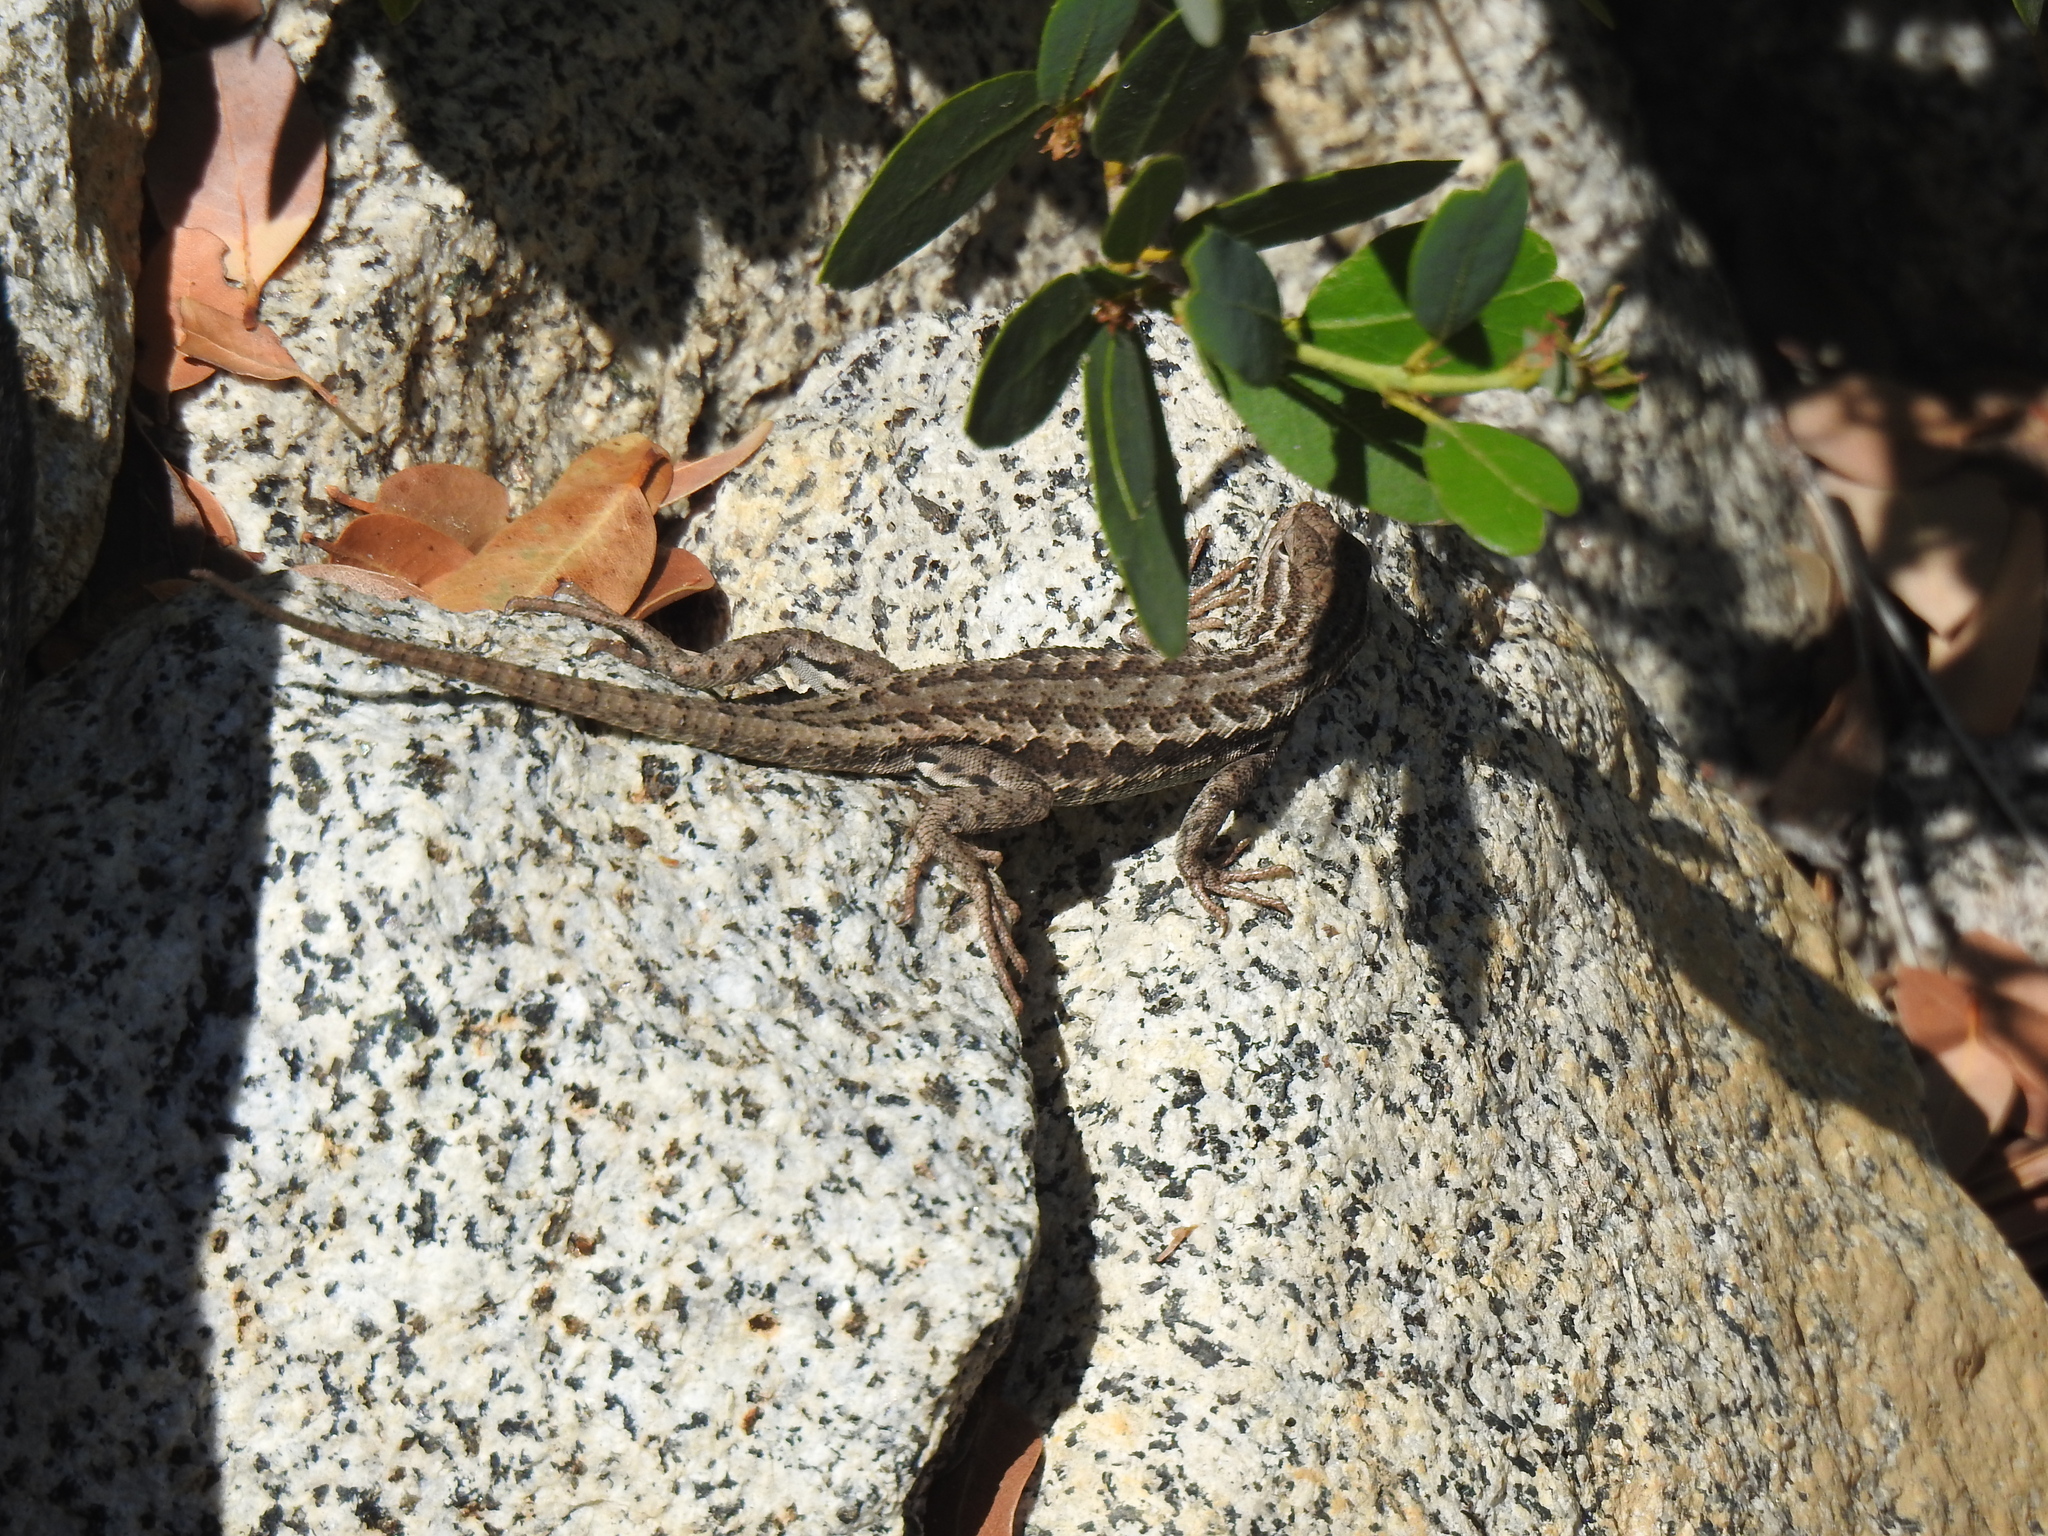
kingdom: Animalia
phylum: Chordata
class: Squamata
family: Phrynosomatidae
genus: Sceloporus
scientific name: Sceloporus graciosus
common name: Sagebrush lizard
